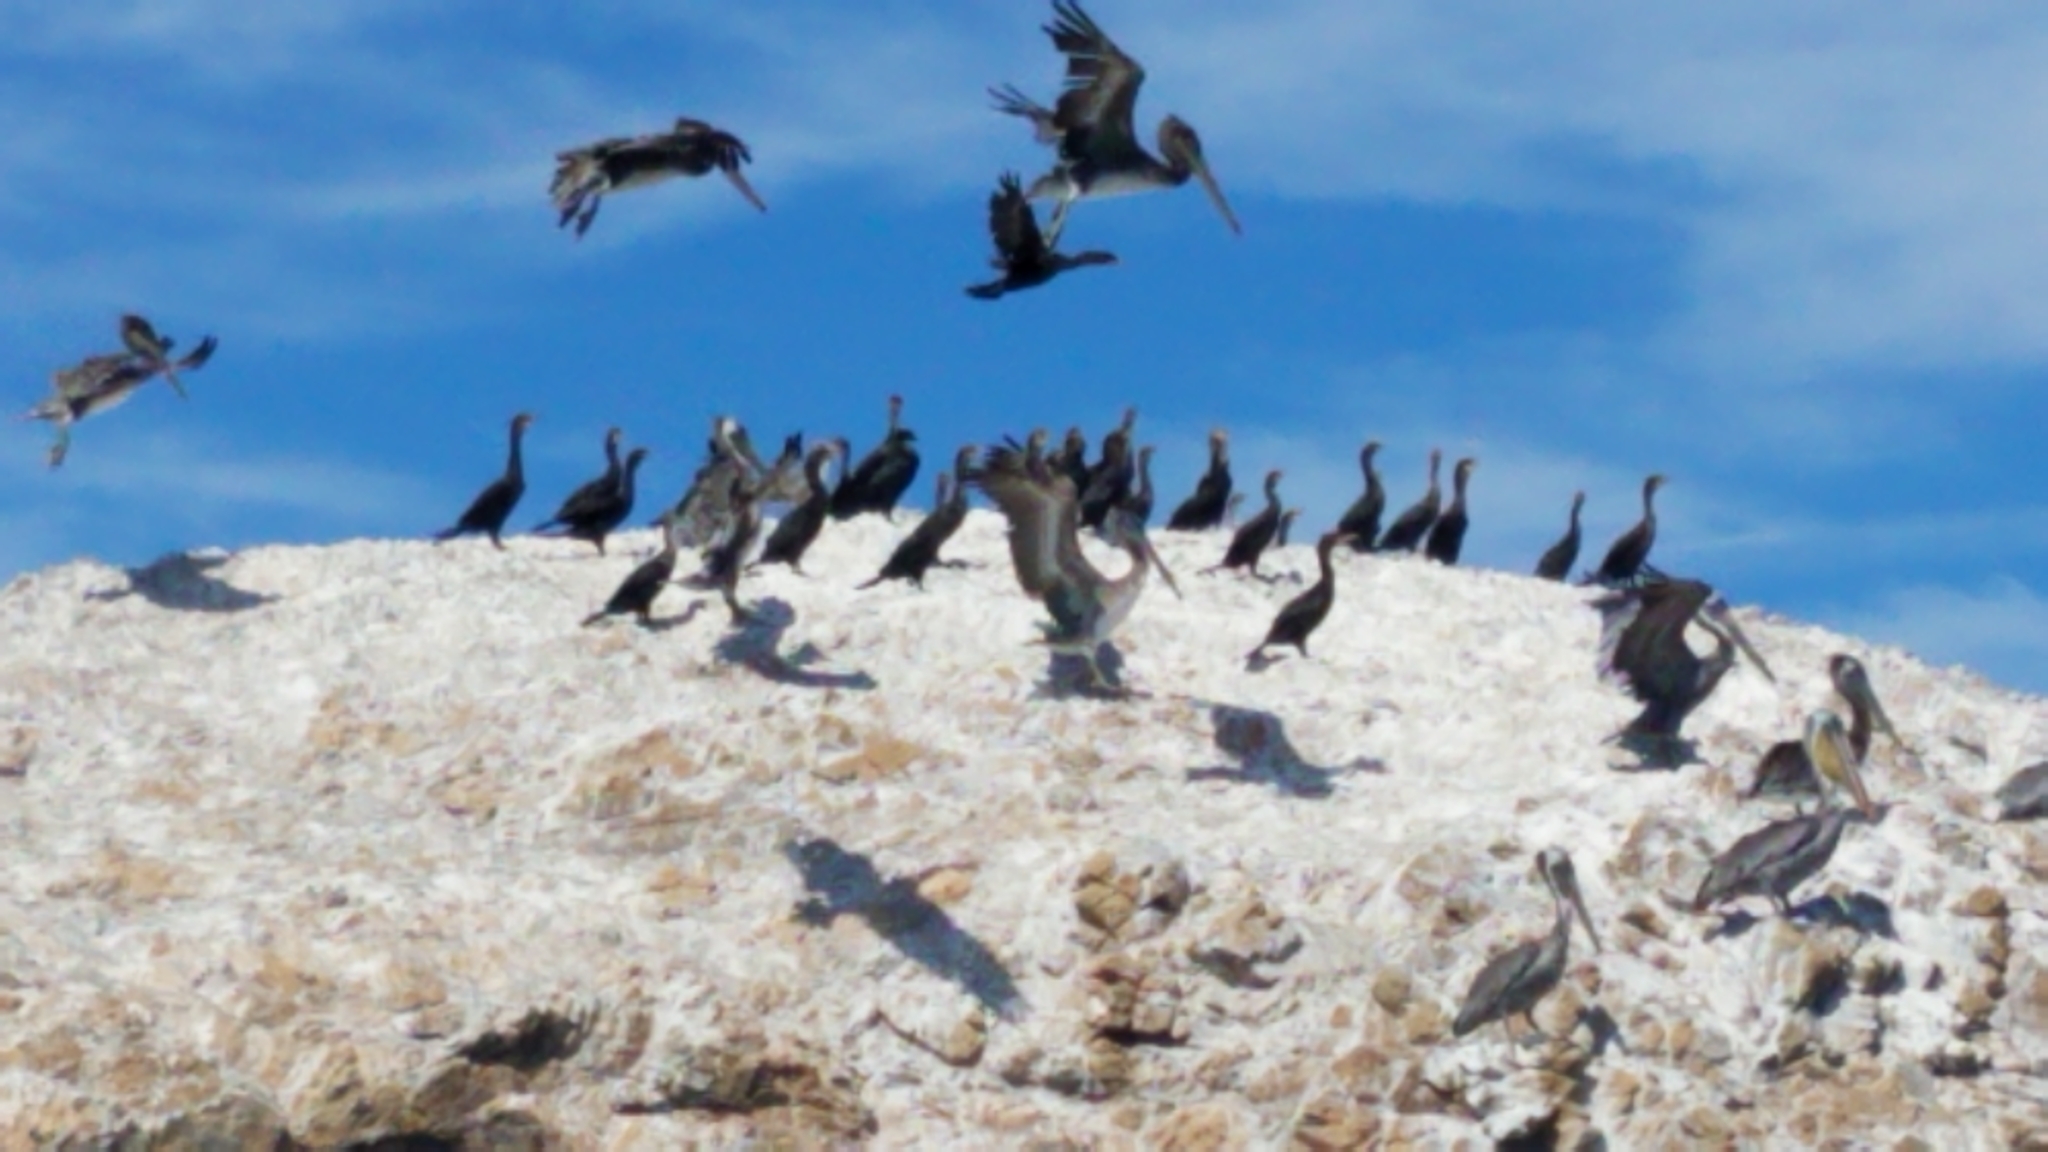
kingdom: Animalia
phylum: Chordata
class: Aves
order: Suliformes
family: Phalacrocoracidae
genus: Phalacrocorax
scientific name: Phalacrocorax auritus
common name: Double-crested cormorant
